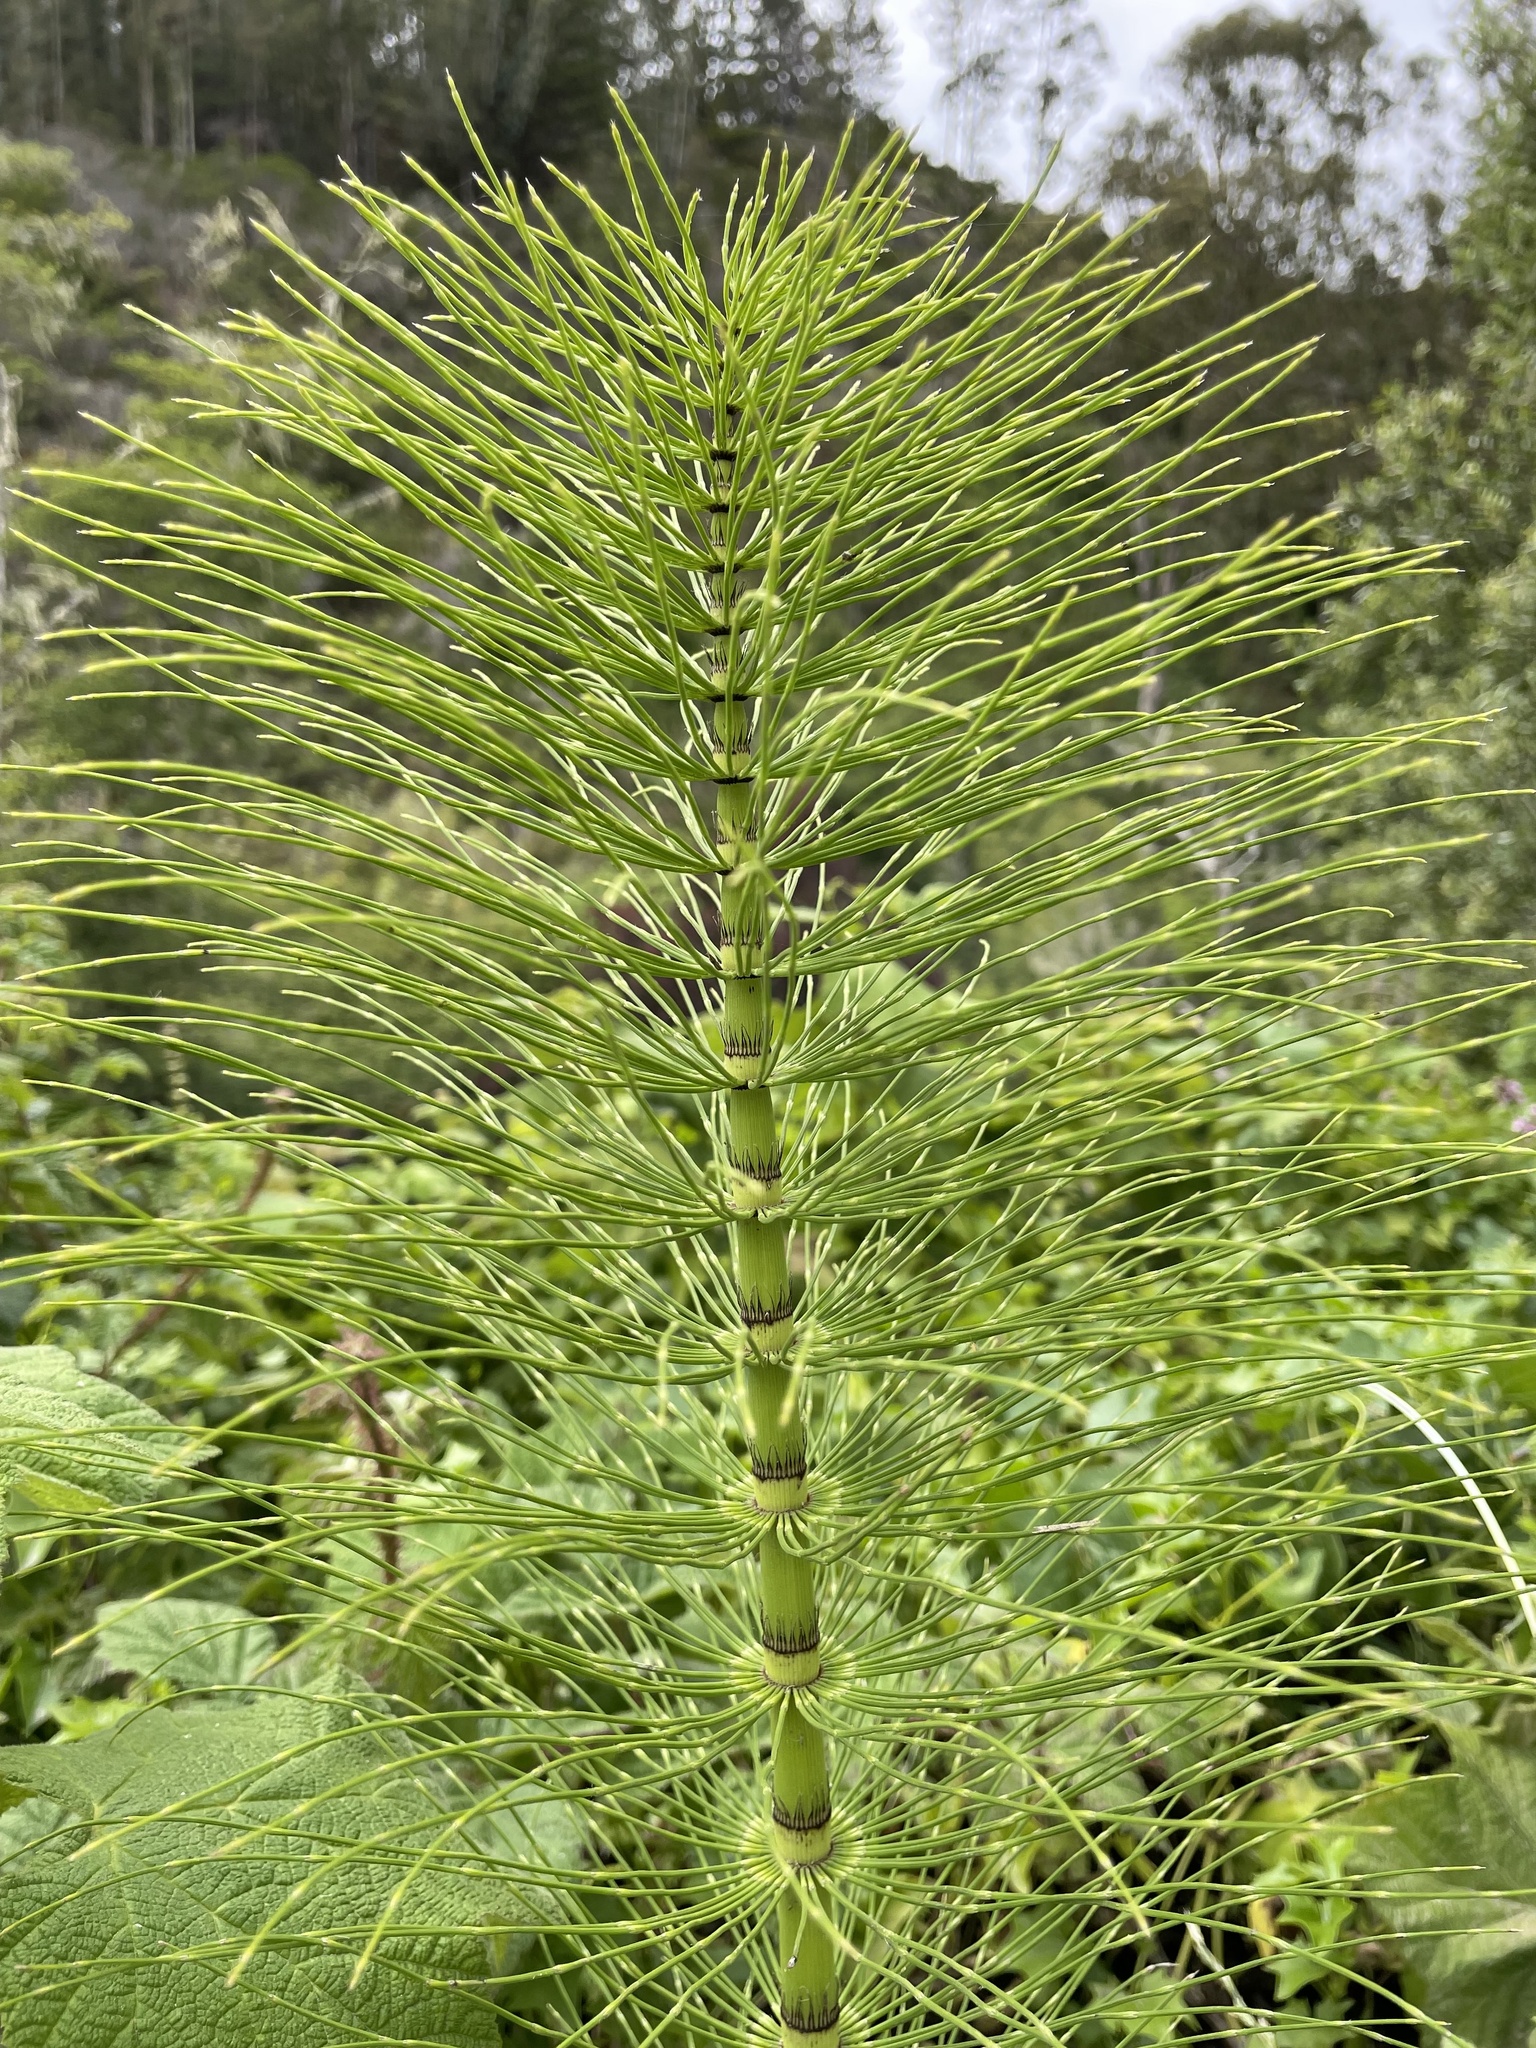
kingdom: Plantae
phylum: Tracheophyta
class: Polypodiopsida
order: Equisetales
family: Equisetaceae
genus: Equisetum
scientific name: Equisetum telmateia
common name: Great horsetail
